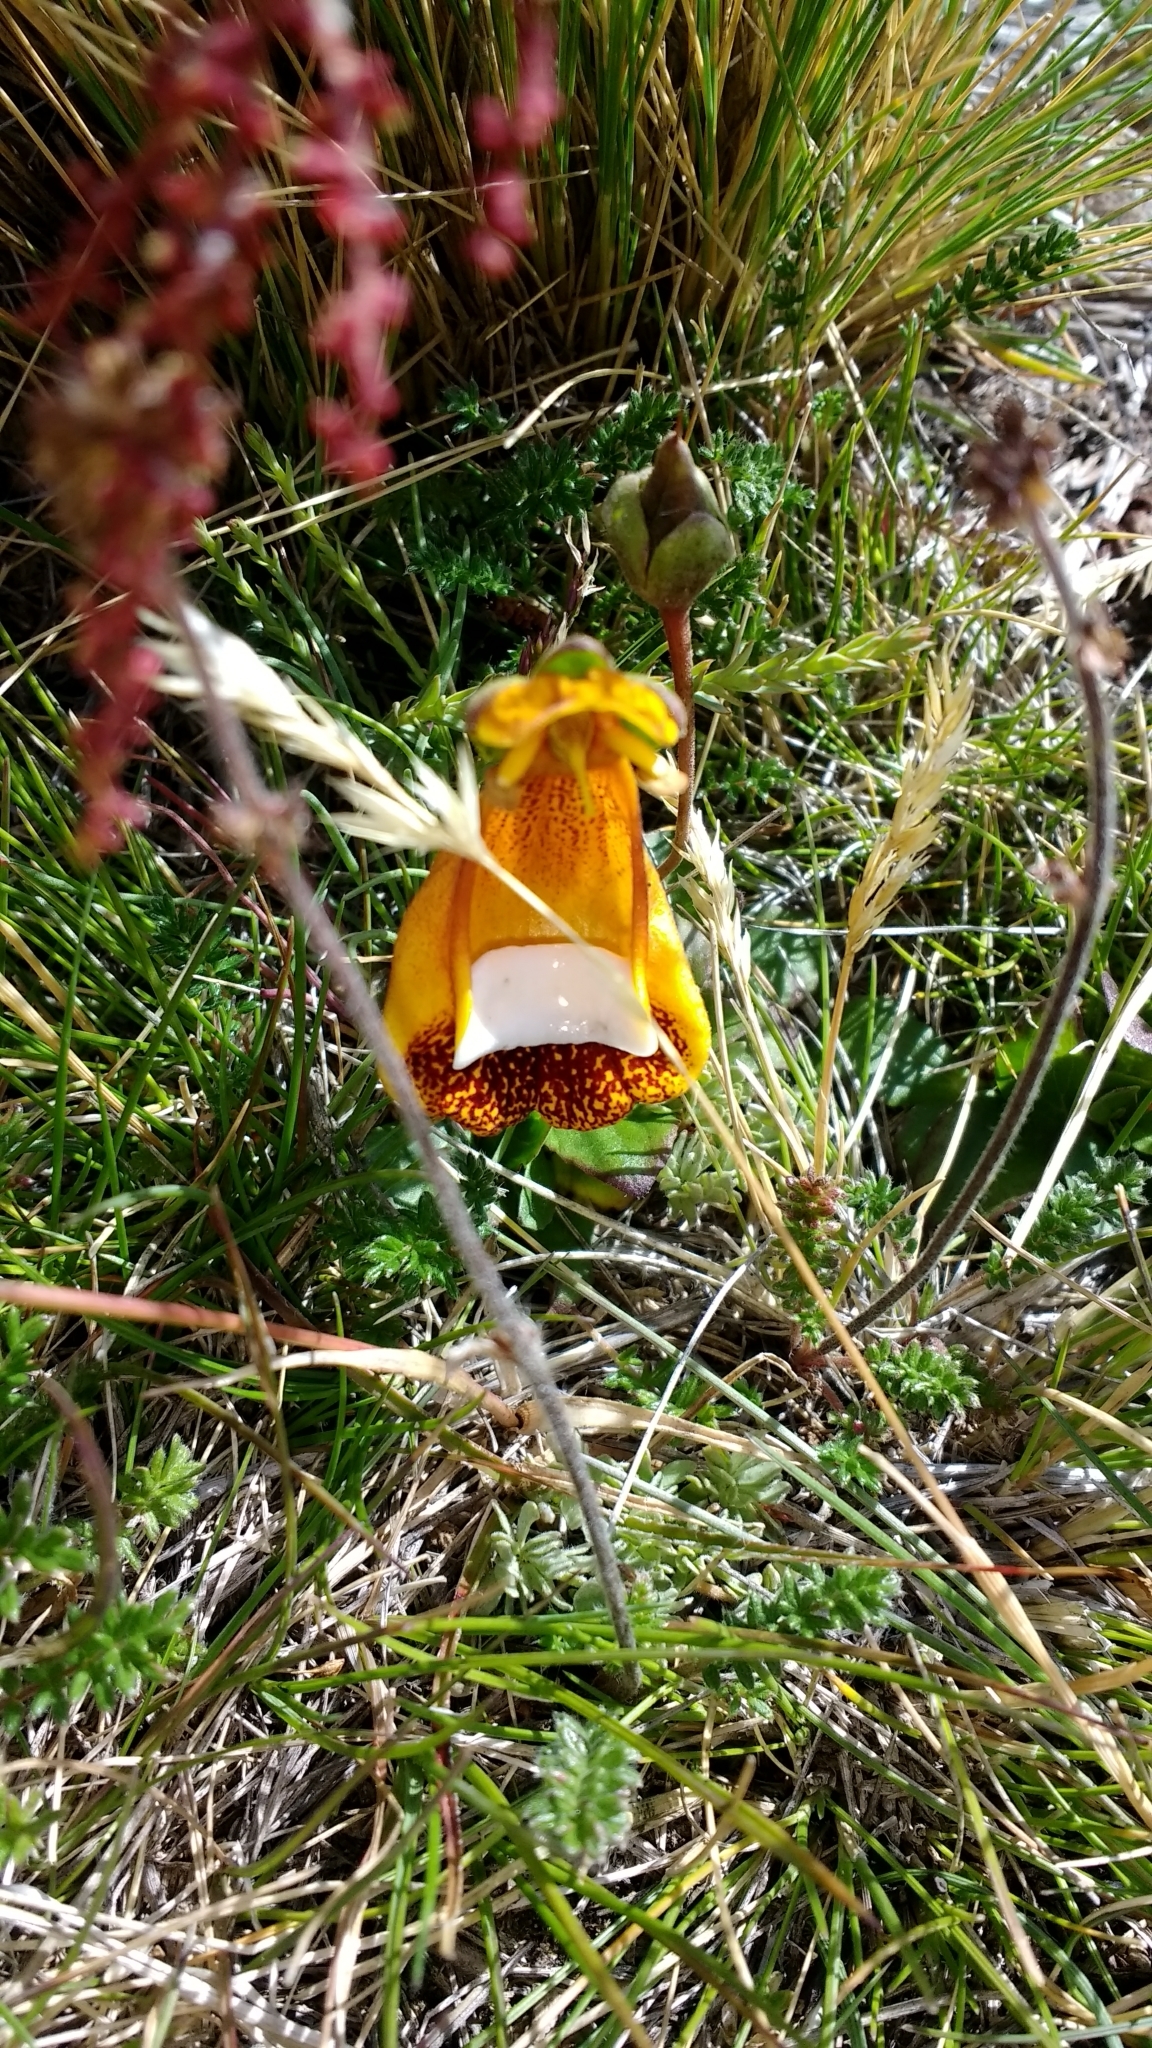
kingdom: Plantae
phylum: Tracheophyta
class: Magnoliopsida
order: Lamiales
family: Calceolariaceae
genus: Calceolaria
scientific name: Calceolaria uniflora
